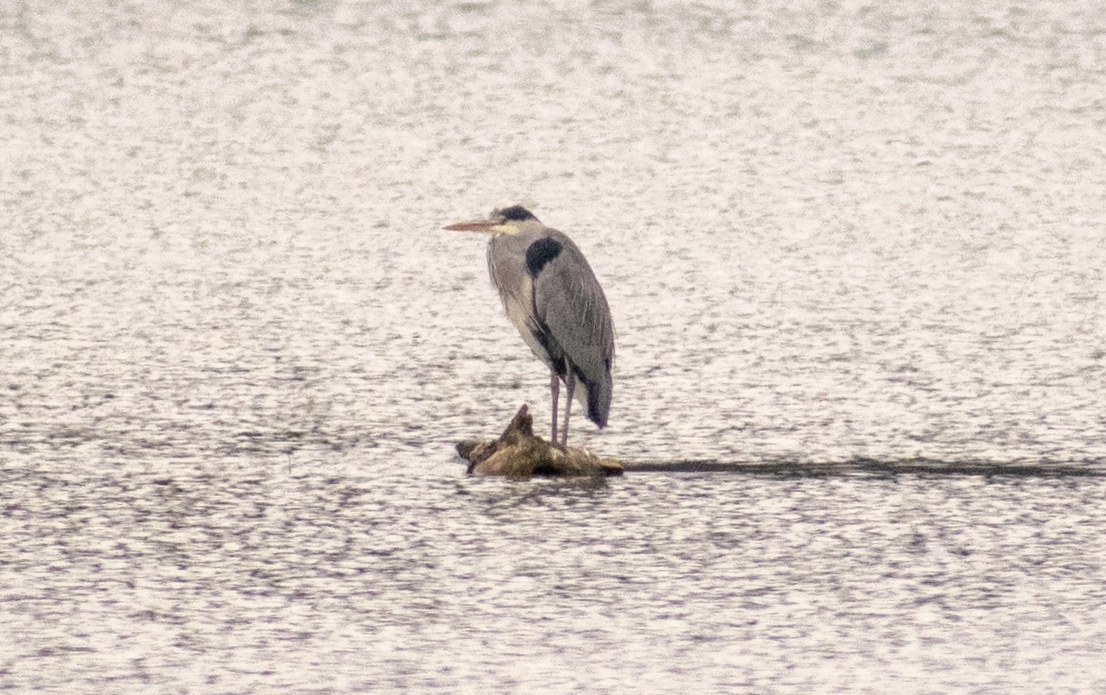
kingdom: Animalia
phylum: Chordata
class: Aves
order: Pelecaniformes
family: Ardeidae
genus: Ardea
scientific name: Ardea cinerea
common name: Grey heron
